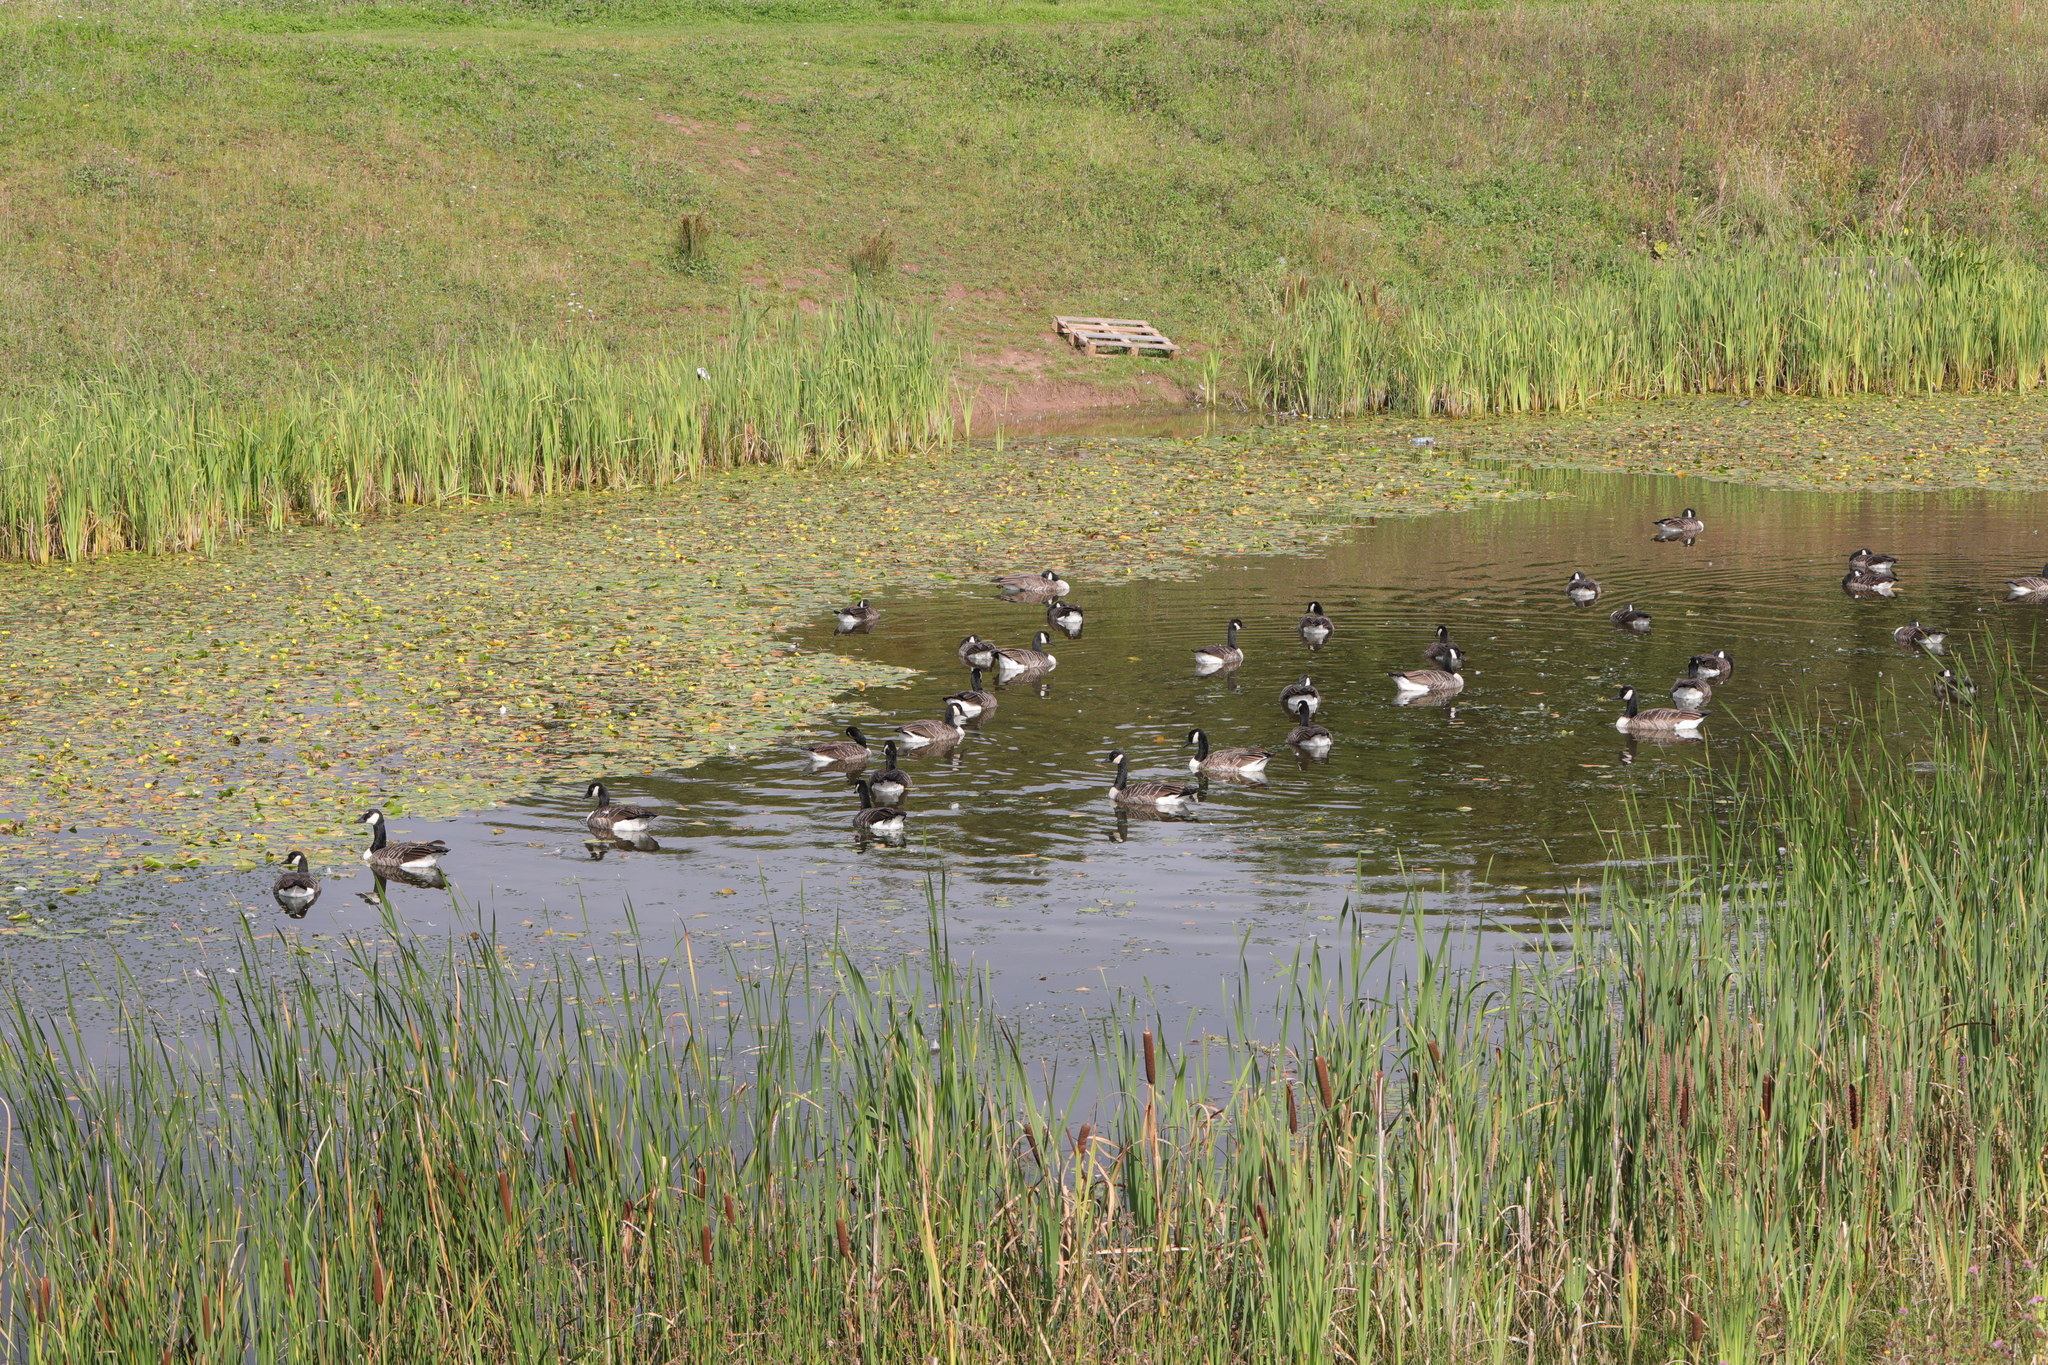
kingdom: Animalia
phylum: Chordata
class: Aves
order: Anseriformes
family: Anatidae
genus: Branta
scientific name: Branta canadensis
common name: Canada goose
